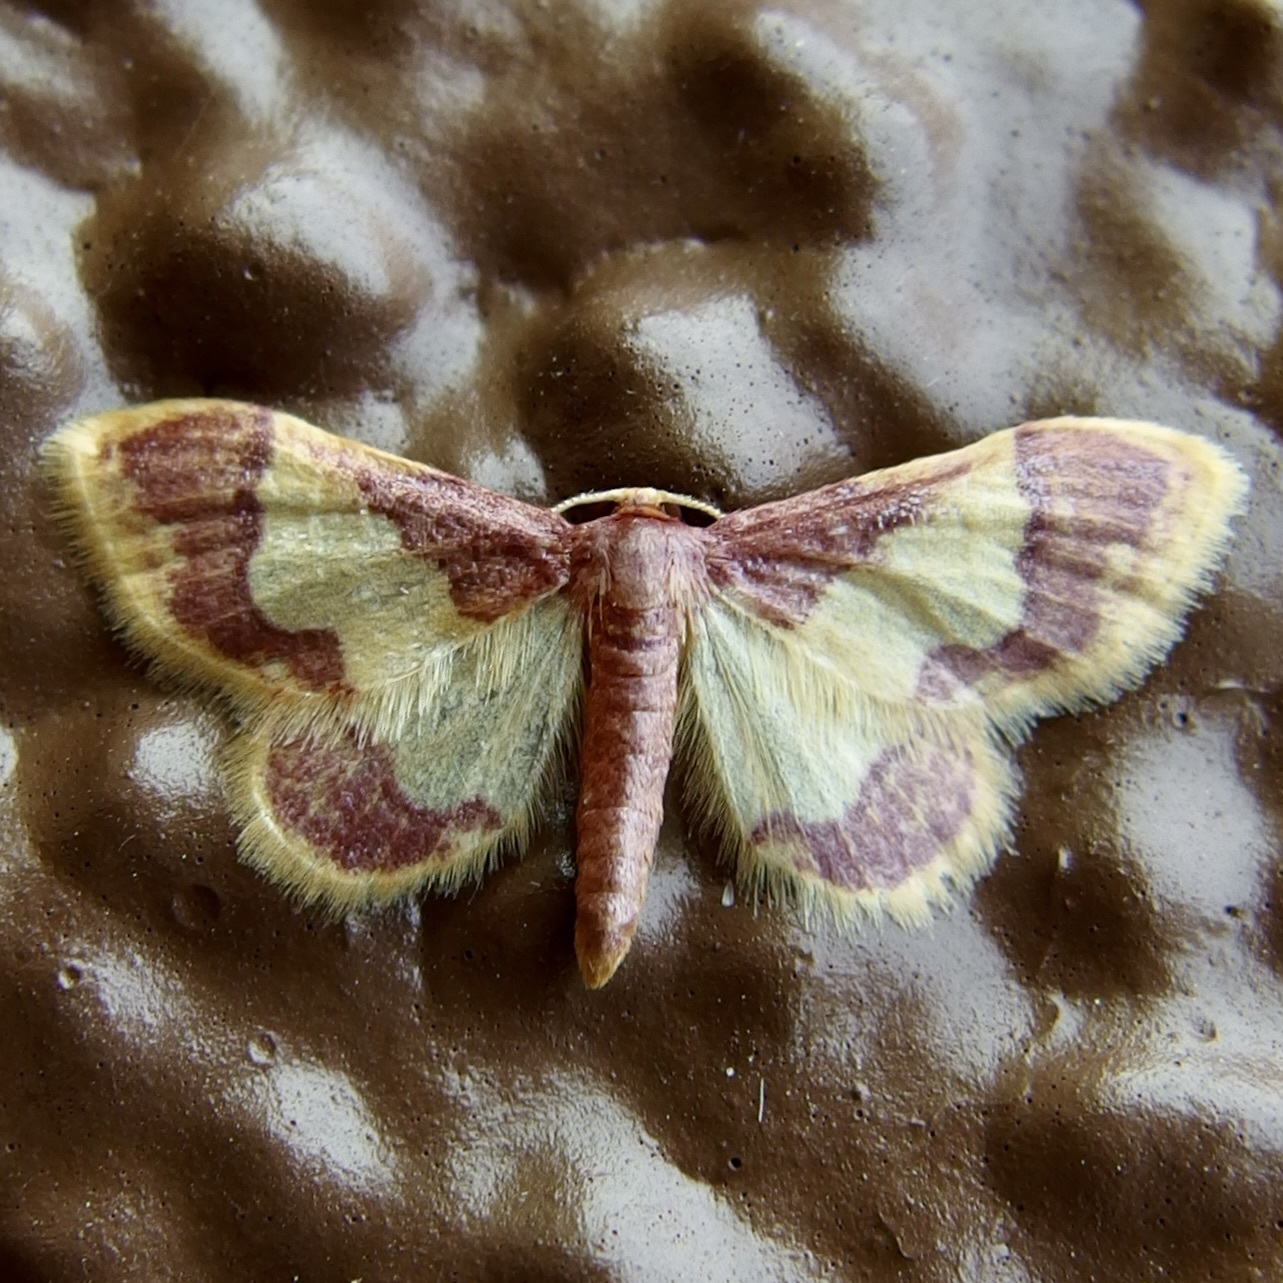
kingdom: Animalia
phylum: Arthropoda
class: Insecta
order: Lepidoptera
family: Geometridae
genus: Idaea
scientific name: Idaea basinta
